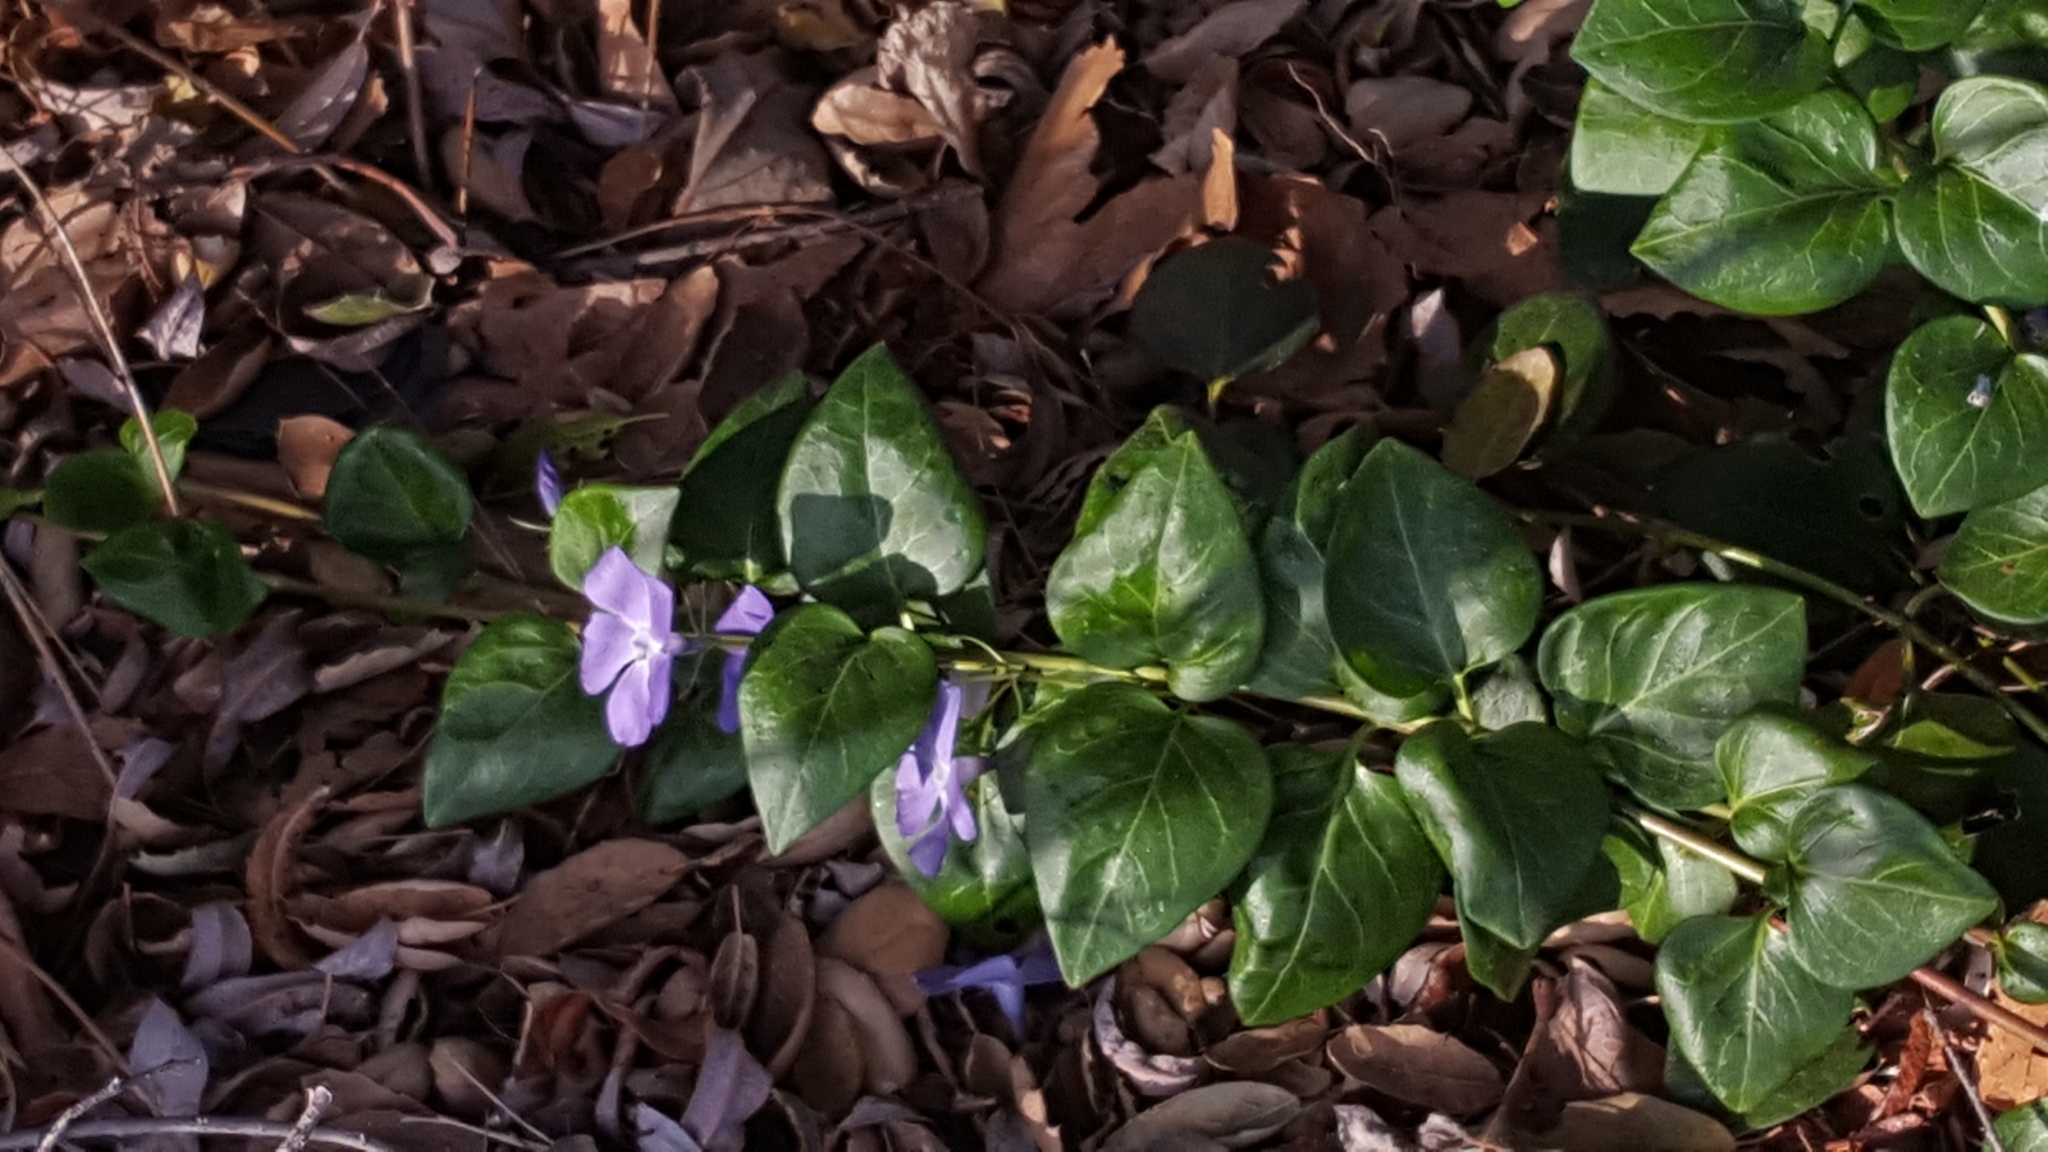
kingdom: Plantae
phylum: Tracheophyta
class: Magnoliopsida
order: Gentianales
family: Apocynaceae
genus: Vinca
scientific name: Vinca major
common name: Greater periwinkle
